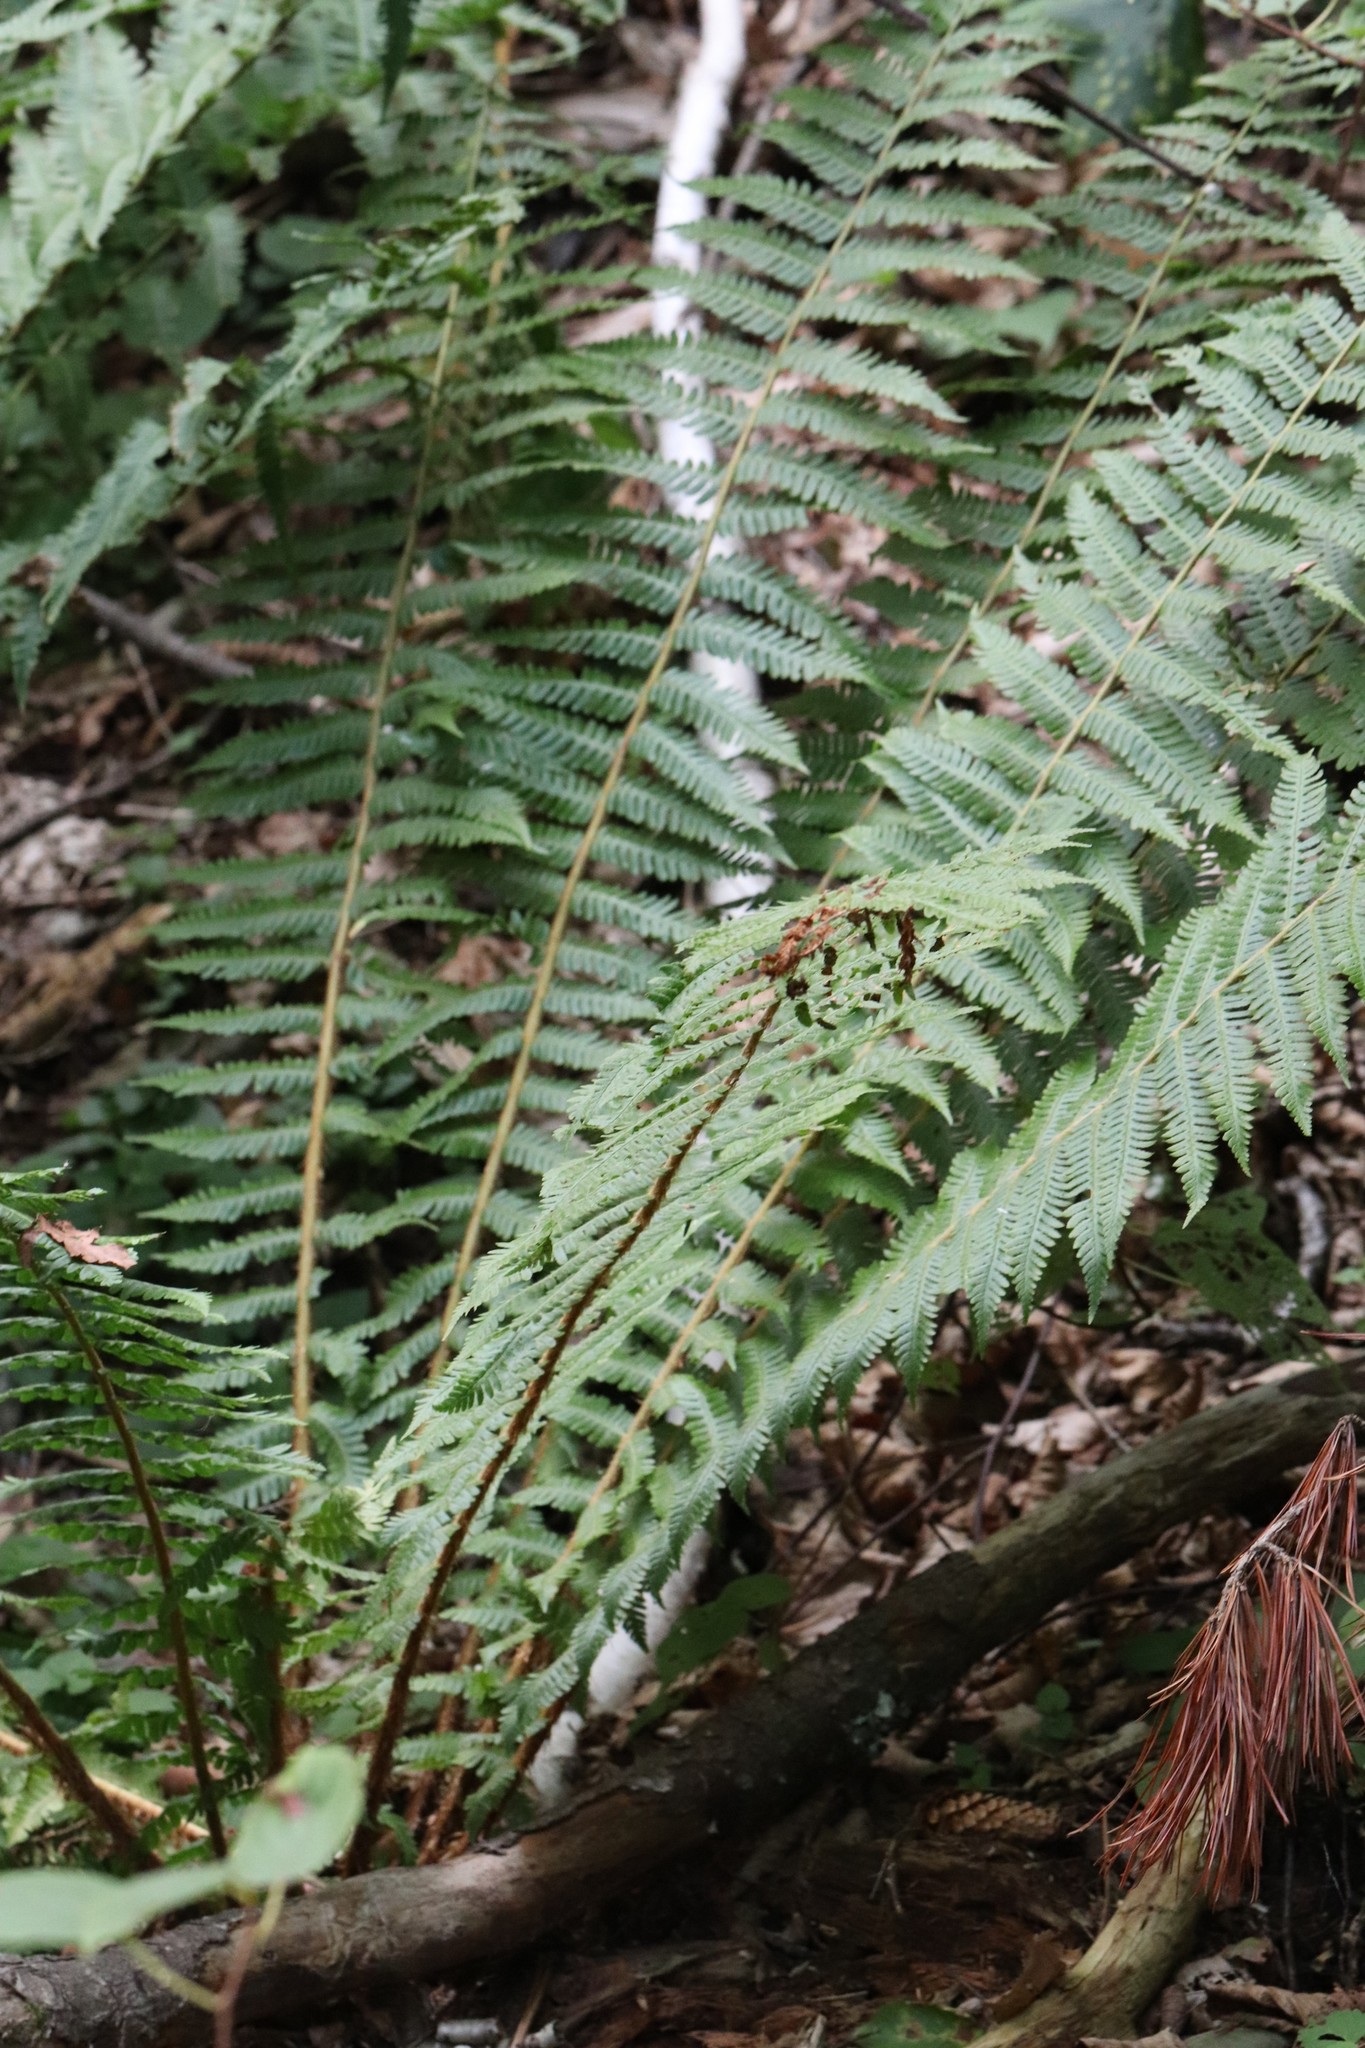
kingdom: Plantae
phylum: Tracheophyta
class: Polypodiopsida
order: Polypodiales
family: Dryopteridaceae
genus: Dryopteris
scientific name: Dryopteris crassirhizoma
